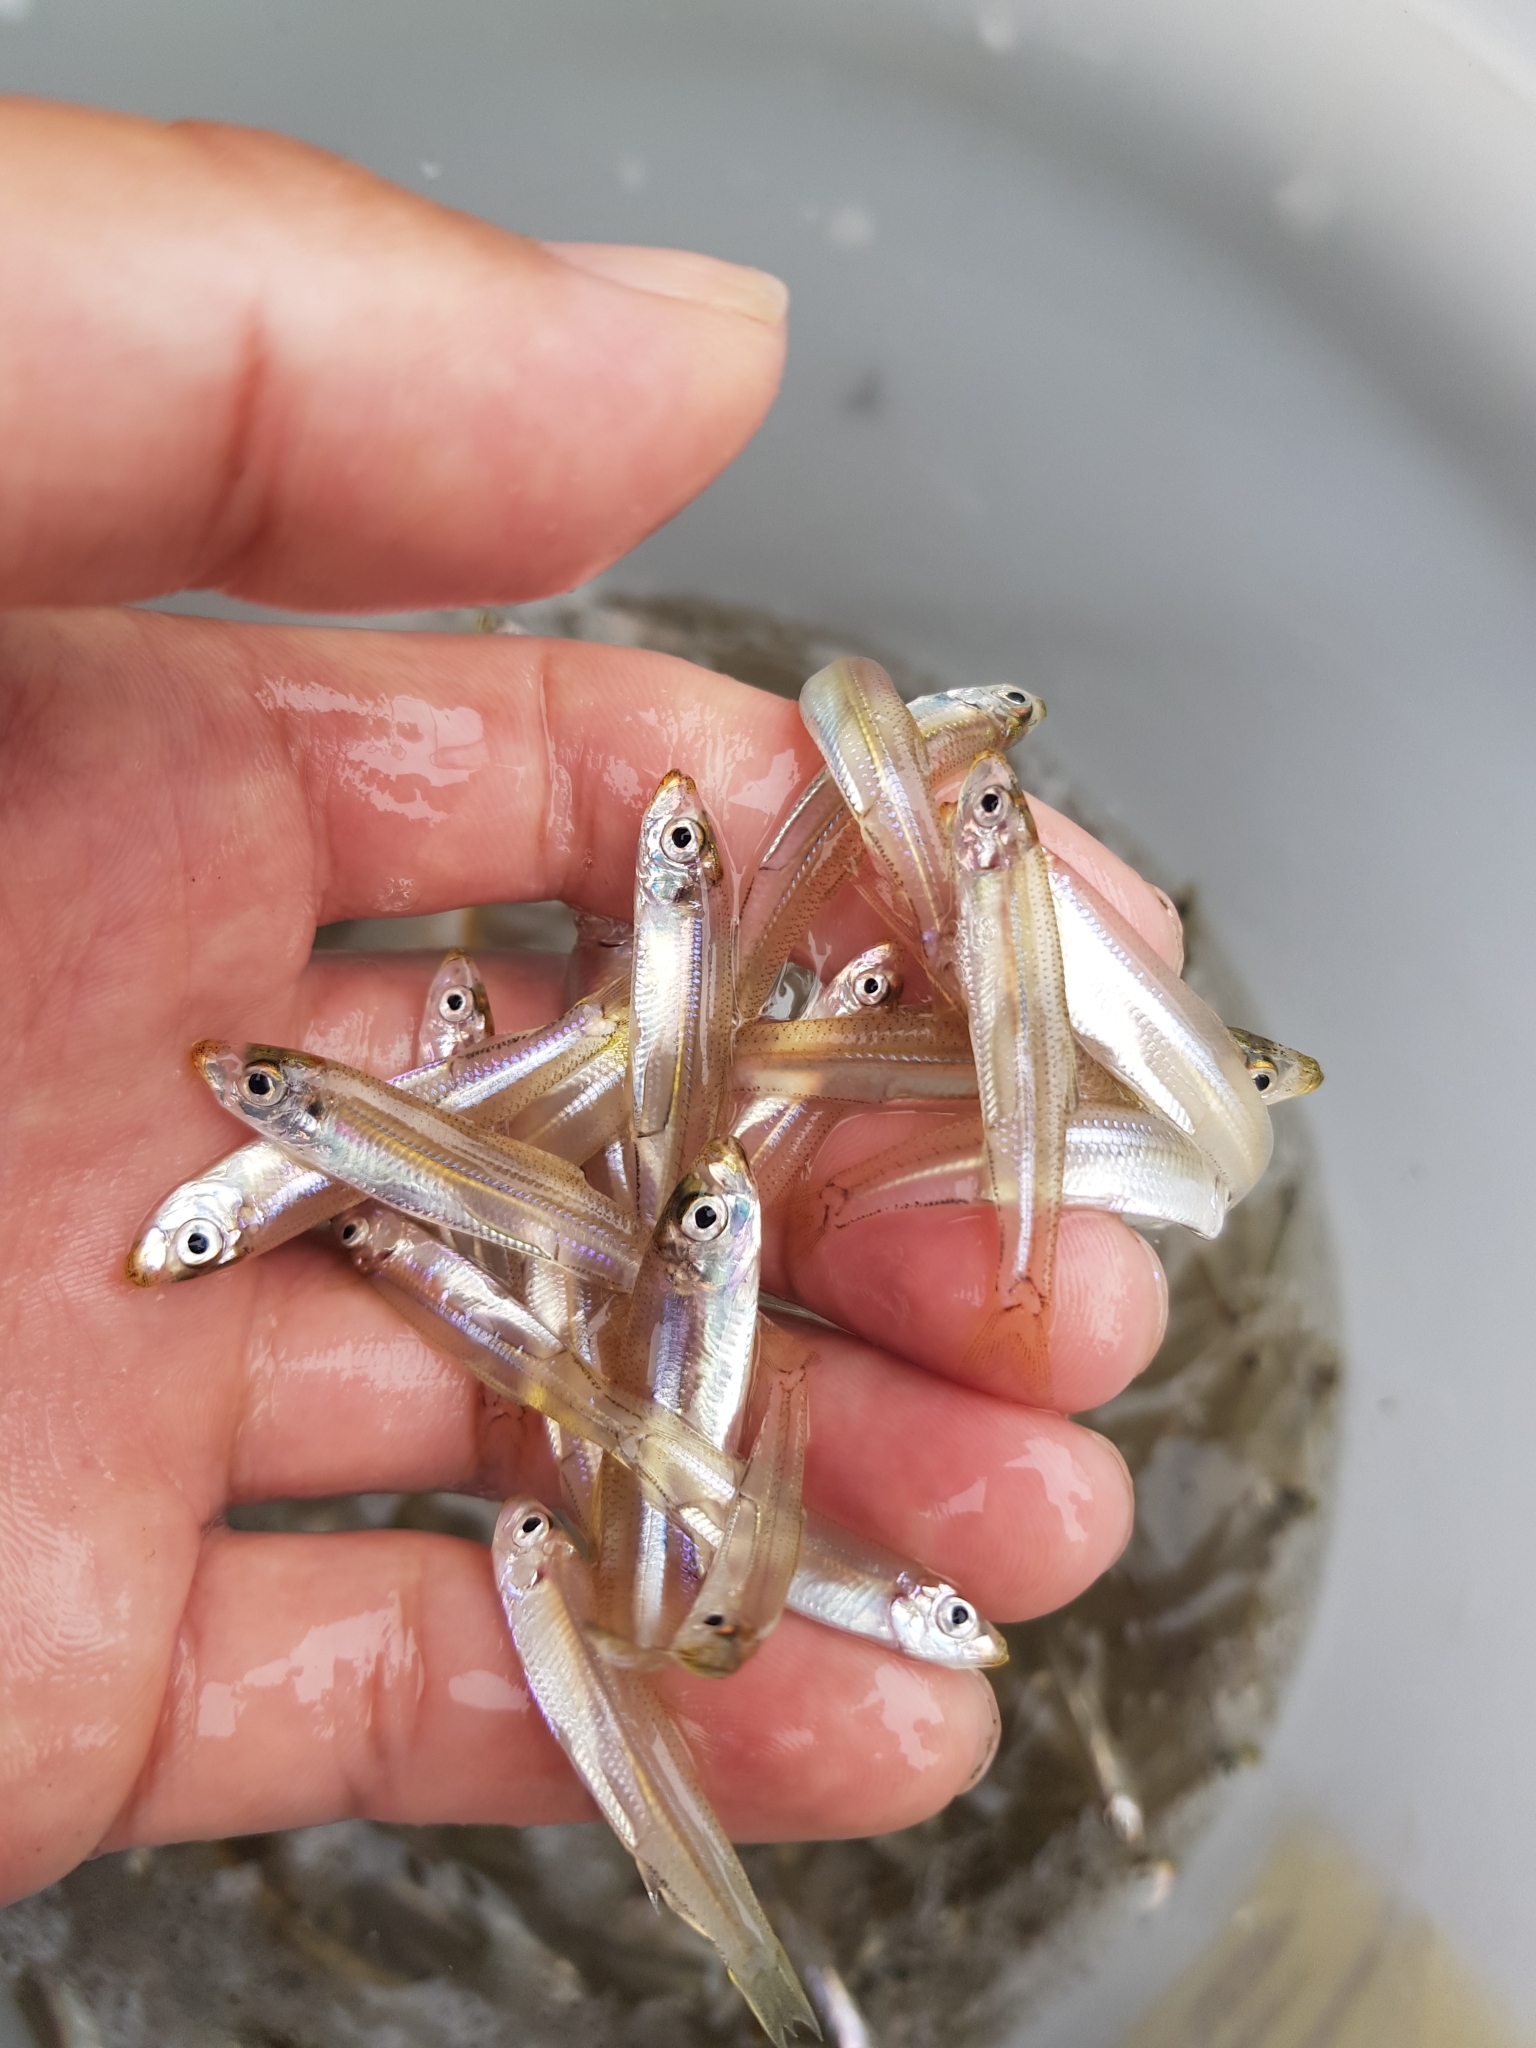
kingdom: Animalia
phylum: Chordata
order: Clupeiformes
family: Clupeidae
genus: Hyperlophus
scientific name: Hyperlophus vittatus
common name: Sandy sprat
